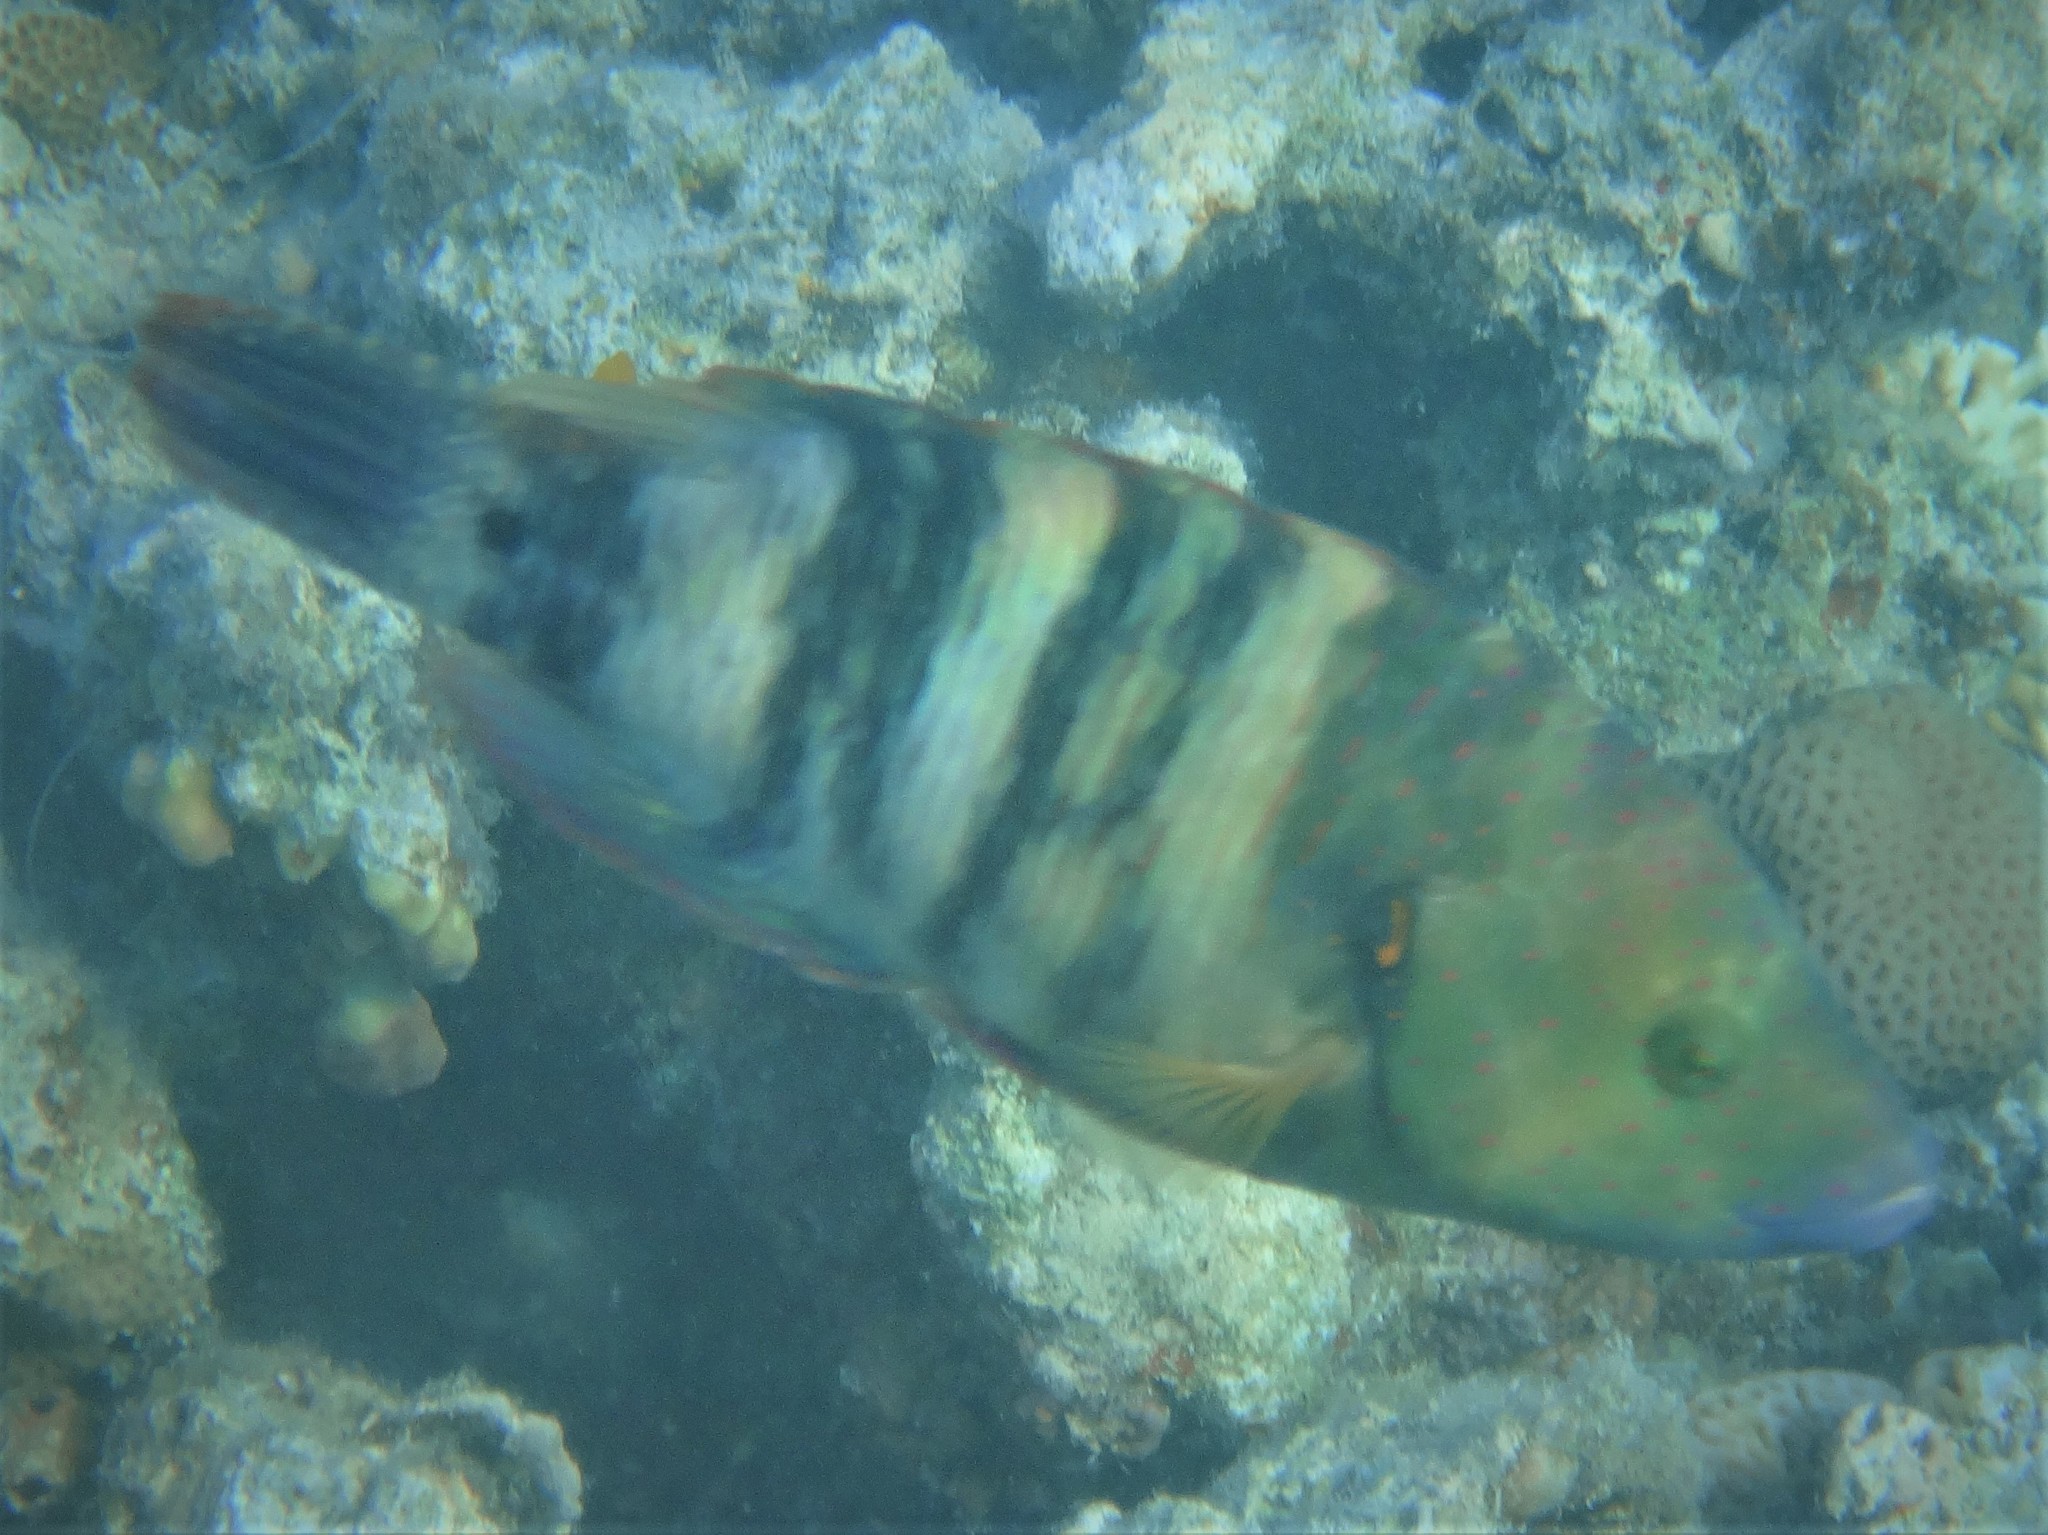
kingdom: Animalia
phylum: Chordata
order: Perciformes
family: Labridae
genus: Cheilinus
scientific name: Cheilinus lunulatus
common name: Broomtail wrasse
